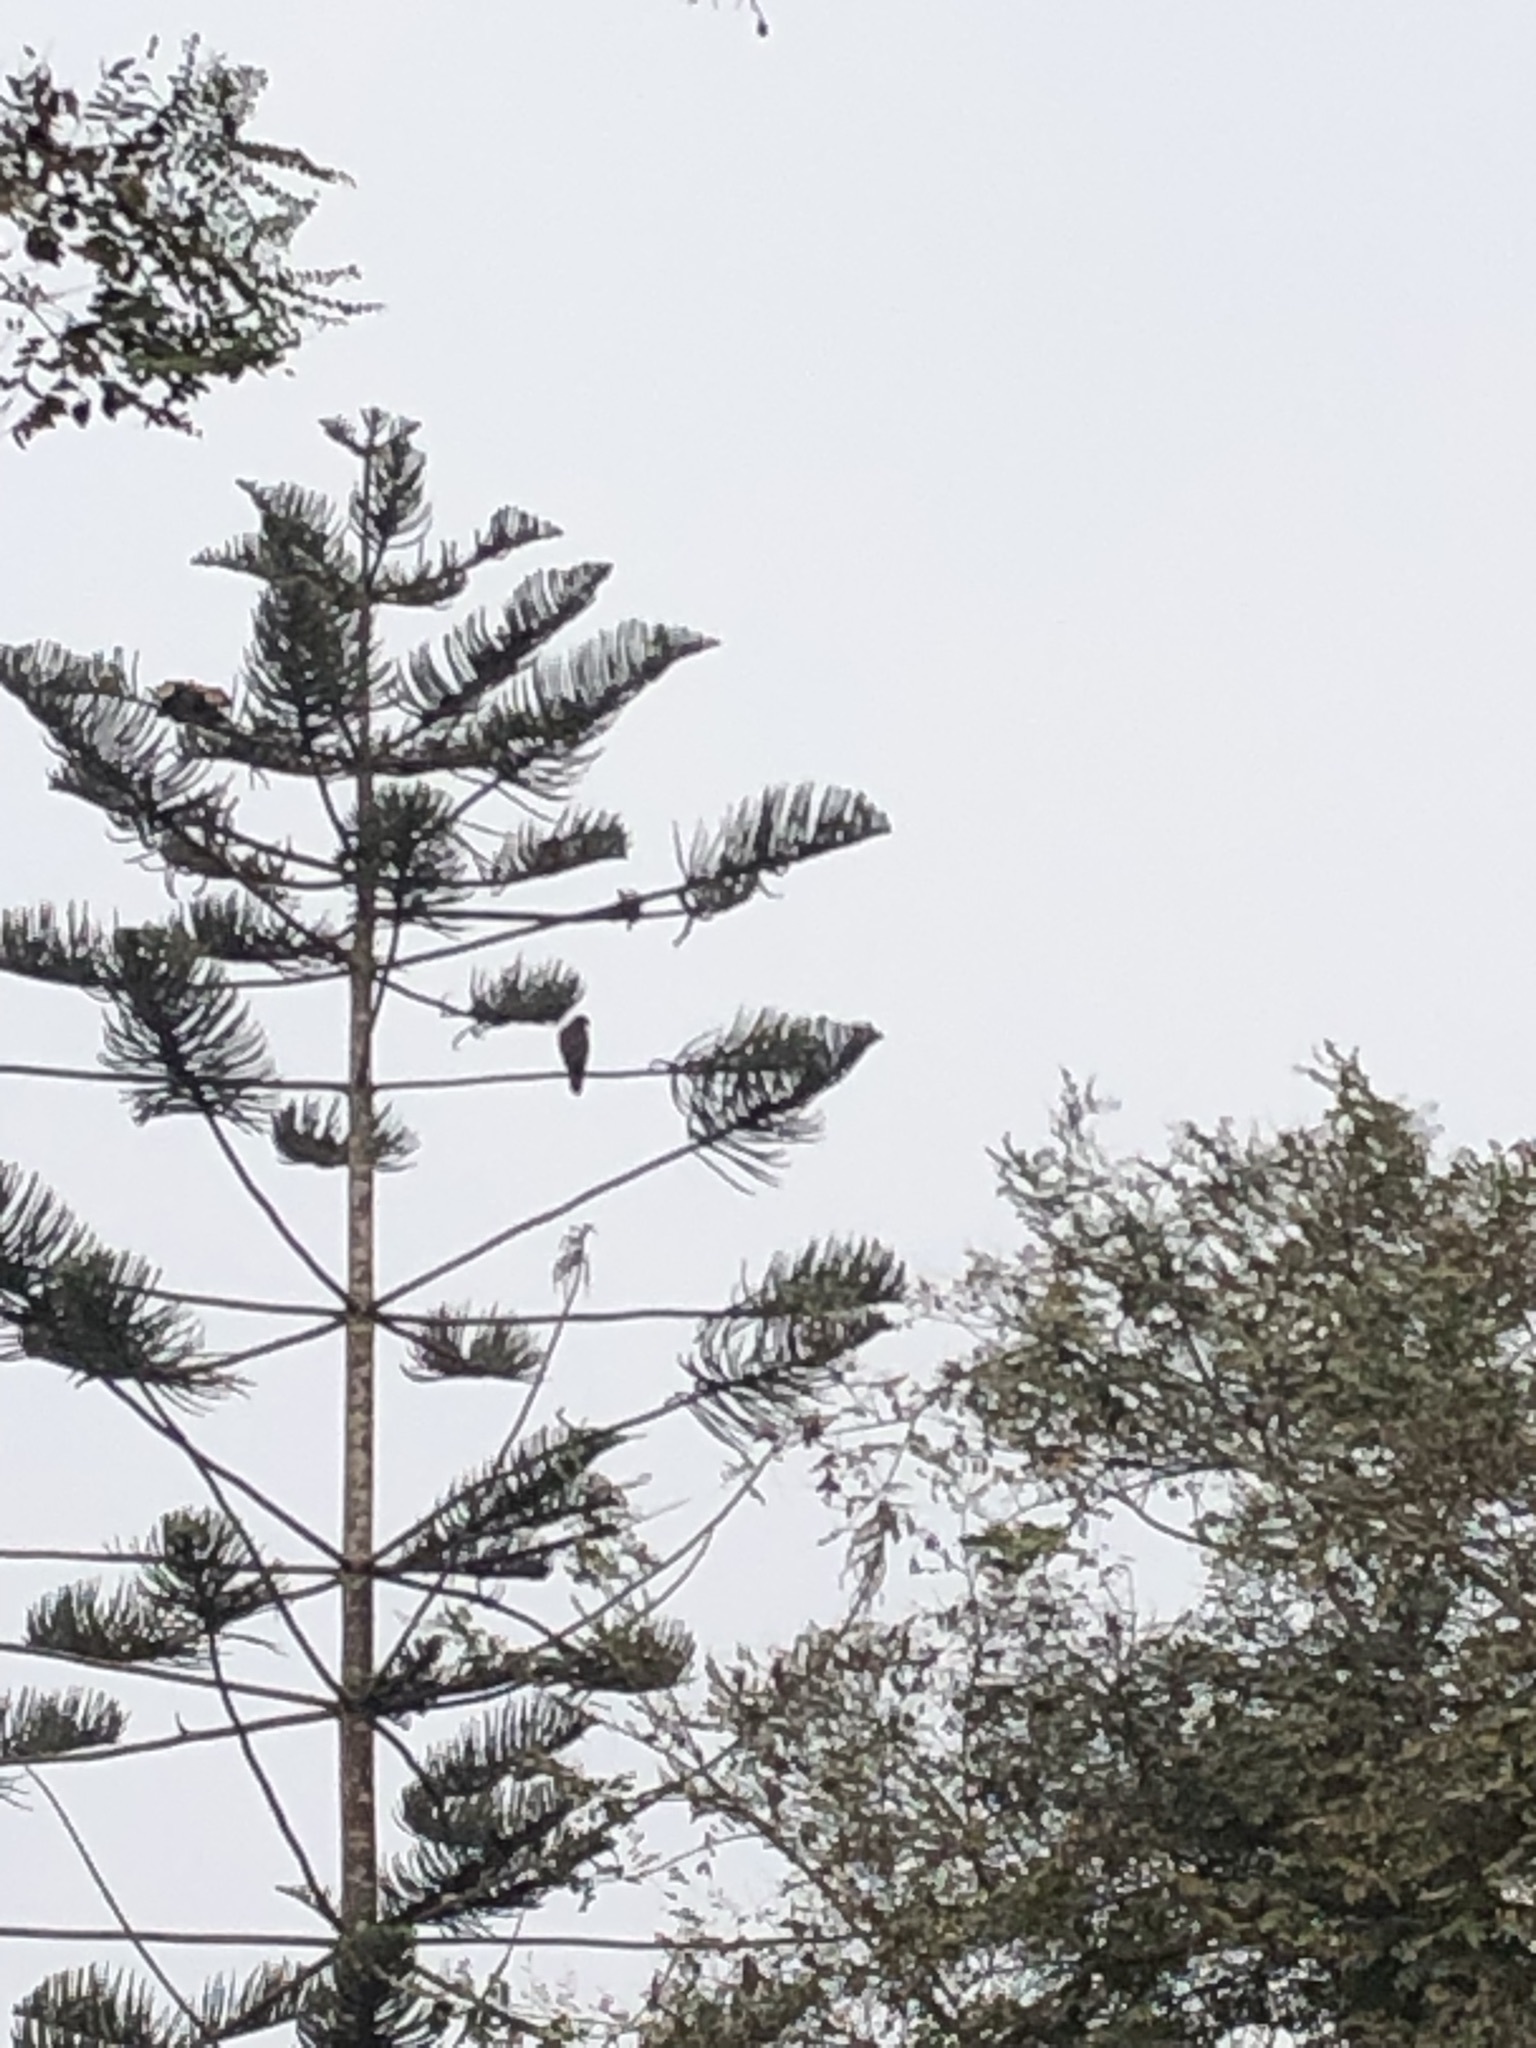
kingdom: Animalia
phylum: Chordata
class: Aves
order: Accipitriformes
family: Accipitridae
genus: Parabuteo
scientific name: Parabuteo unicinctus
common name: Harris's hawk
